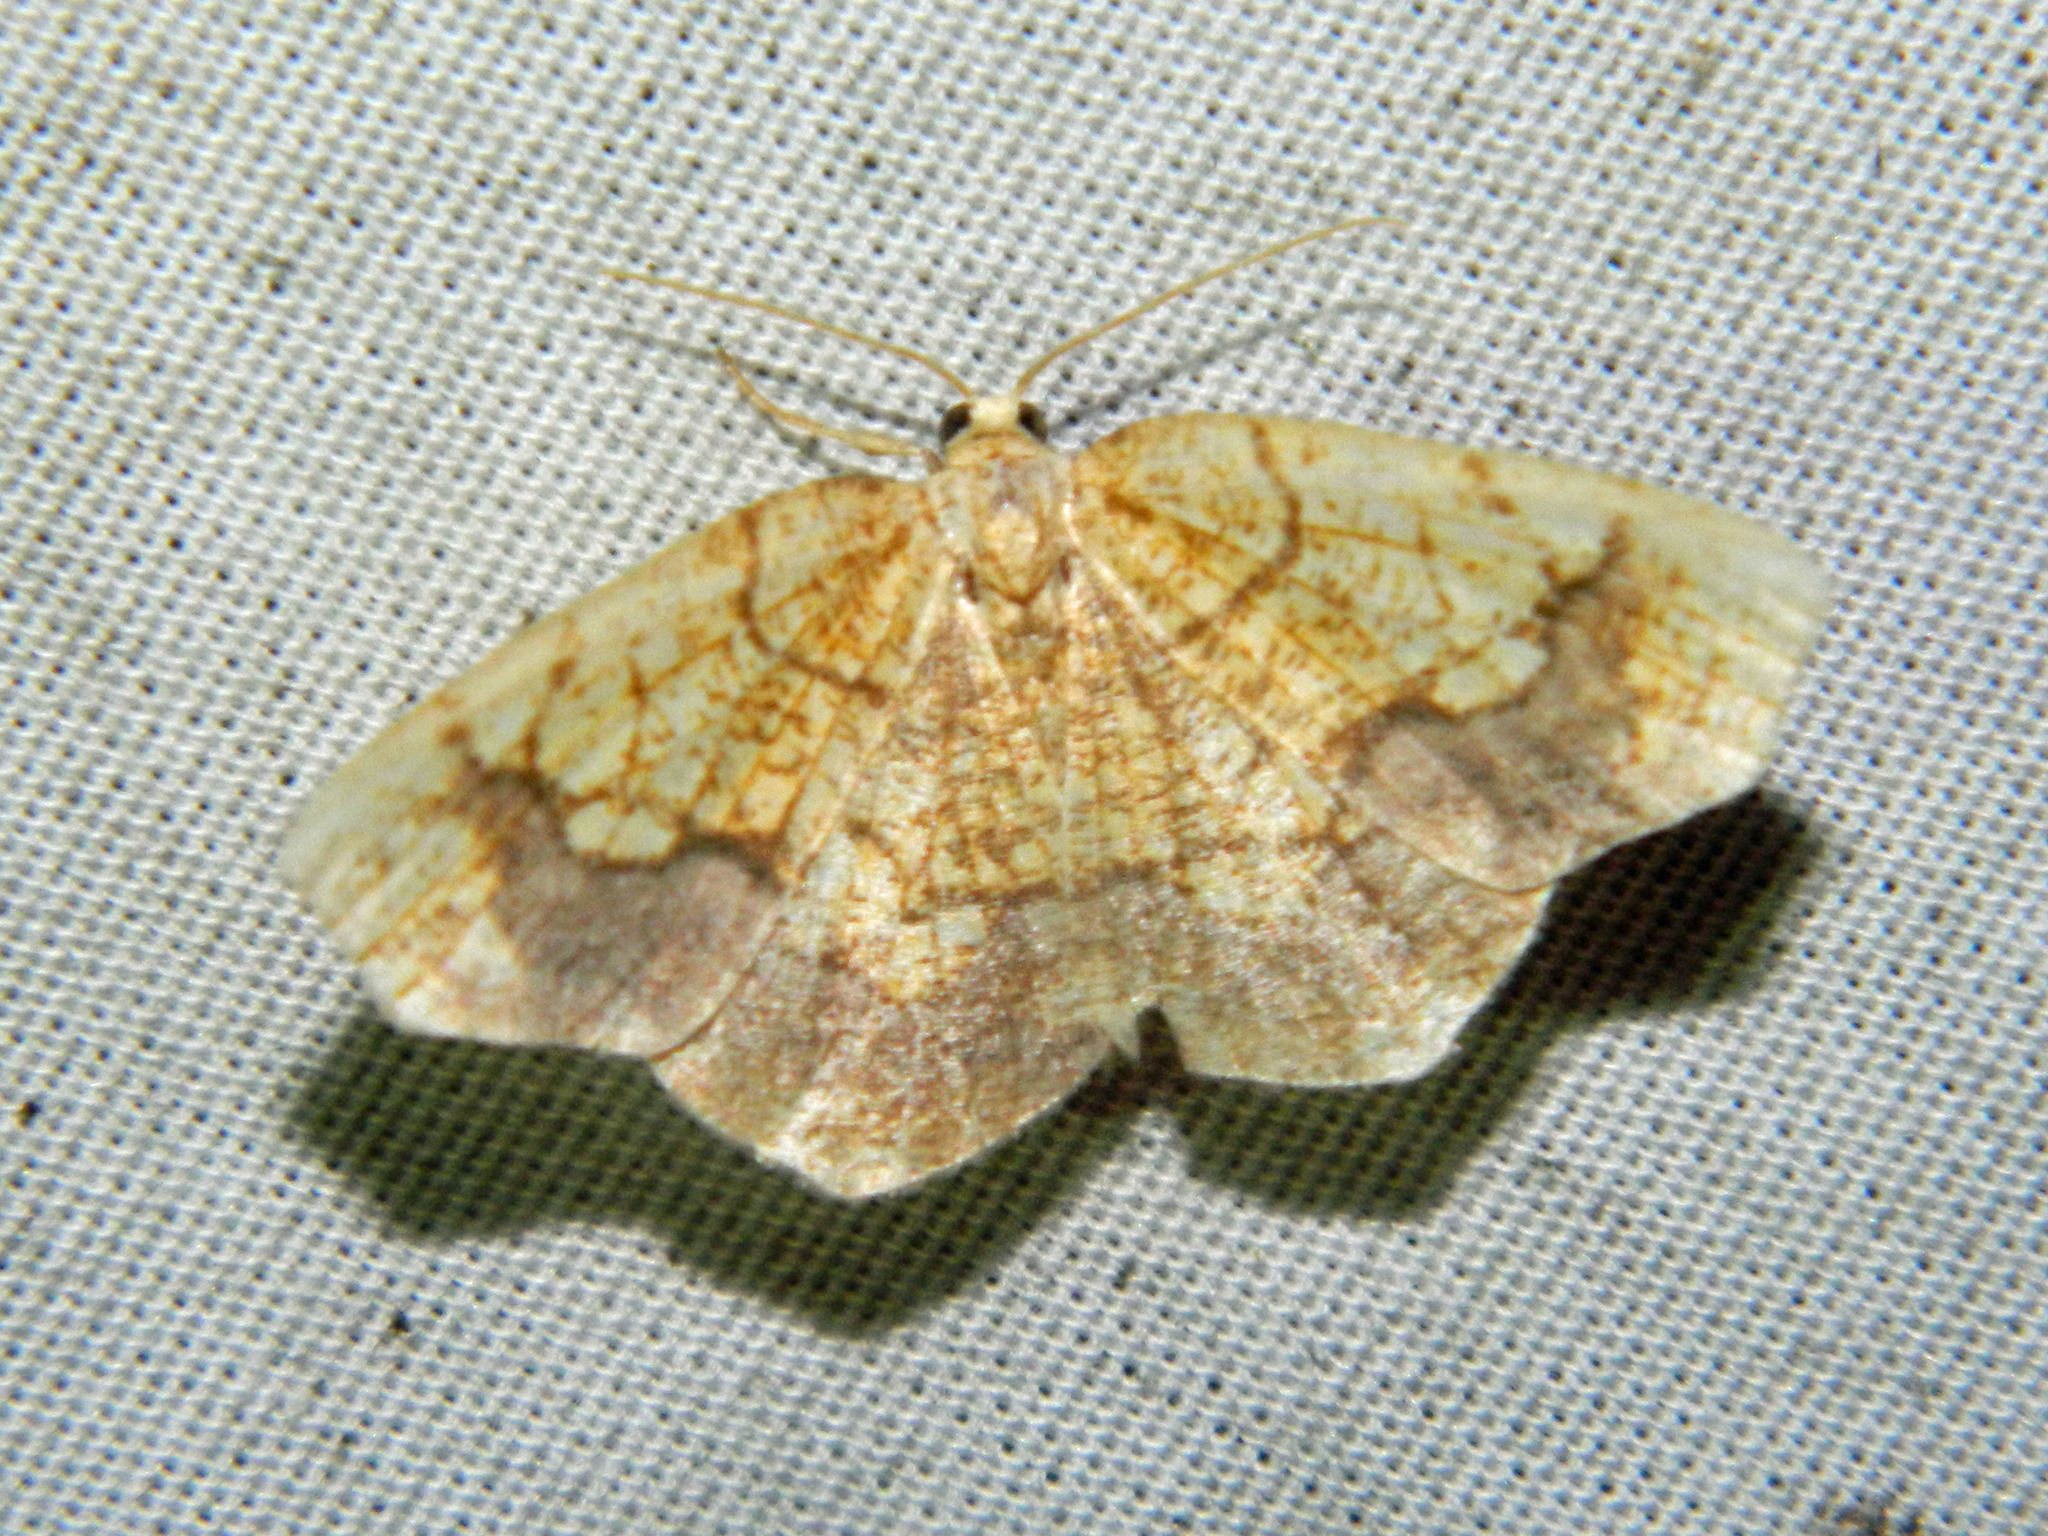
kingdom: Animalia
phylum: Arthropoda
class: Insecta
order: Lepidoptera
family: Geometridae
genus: Nematocampa
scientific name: Nematocampa resistaria
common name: Horned spanworm moth
